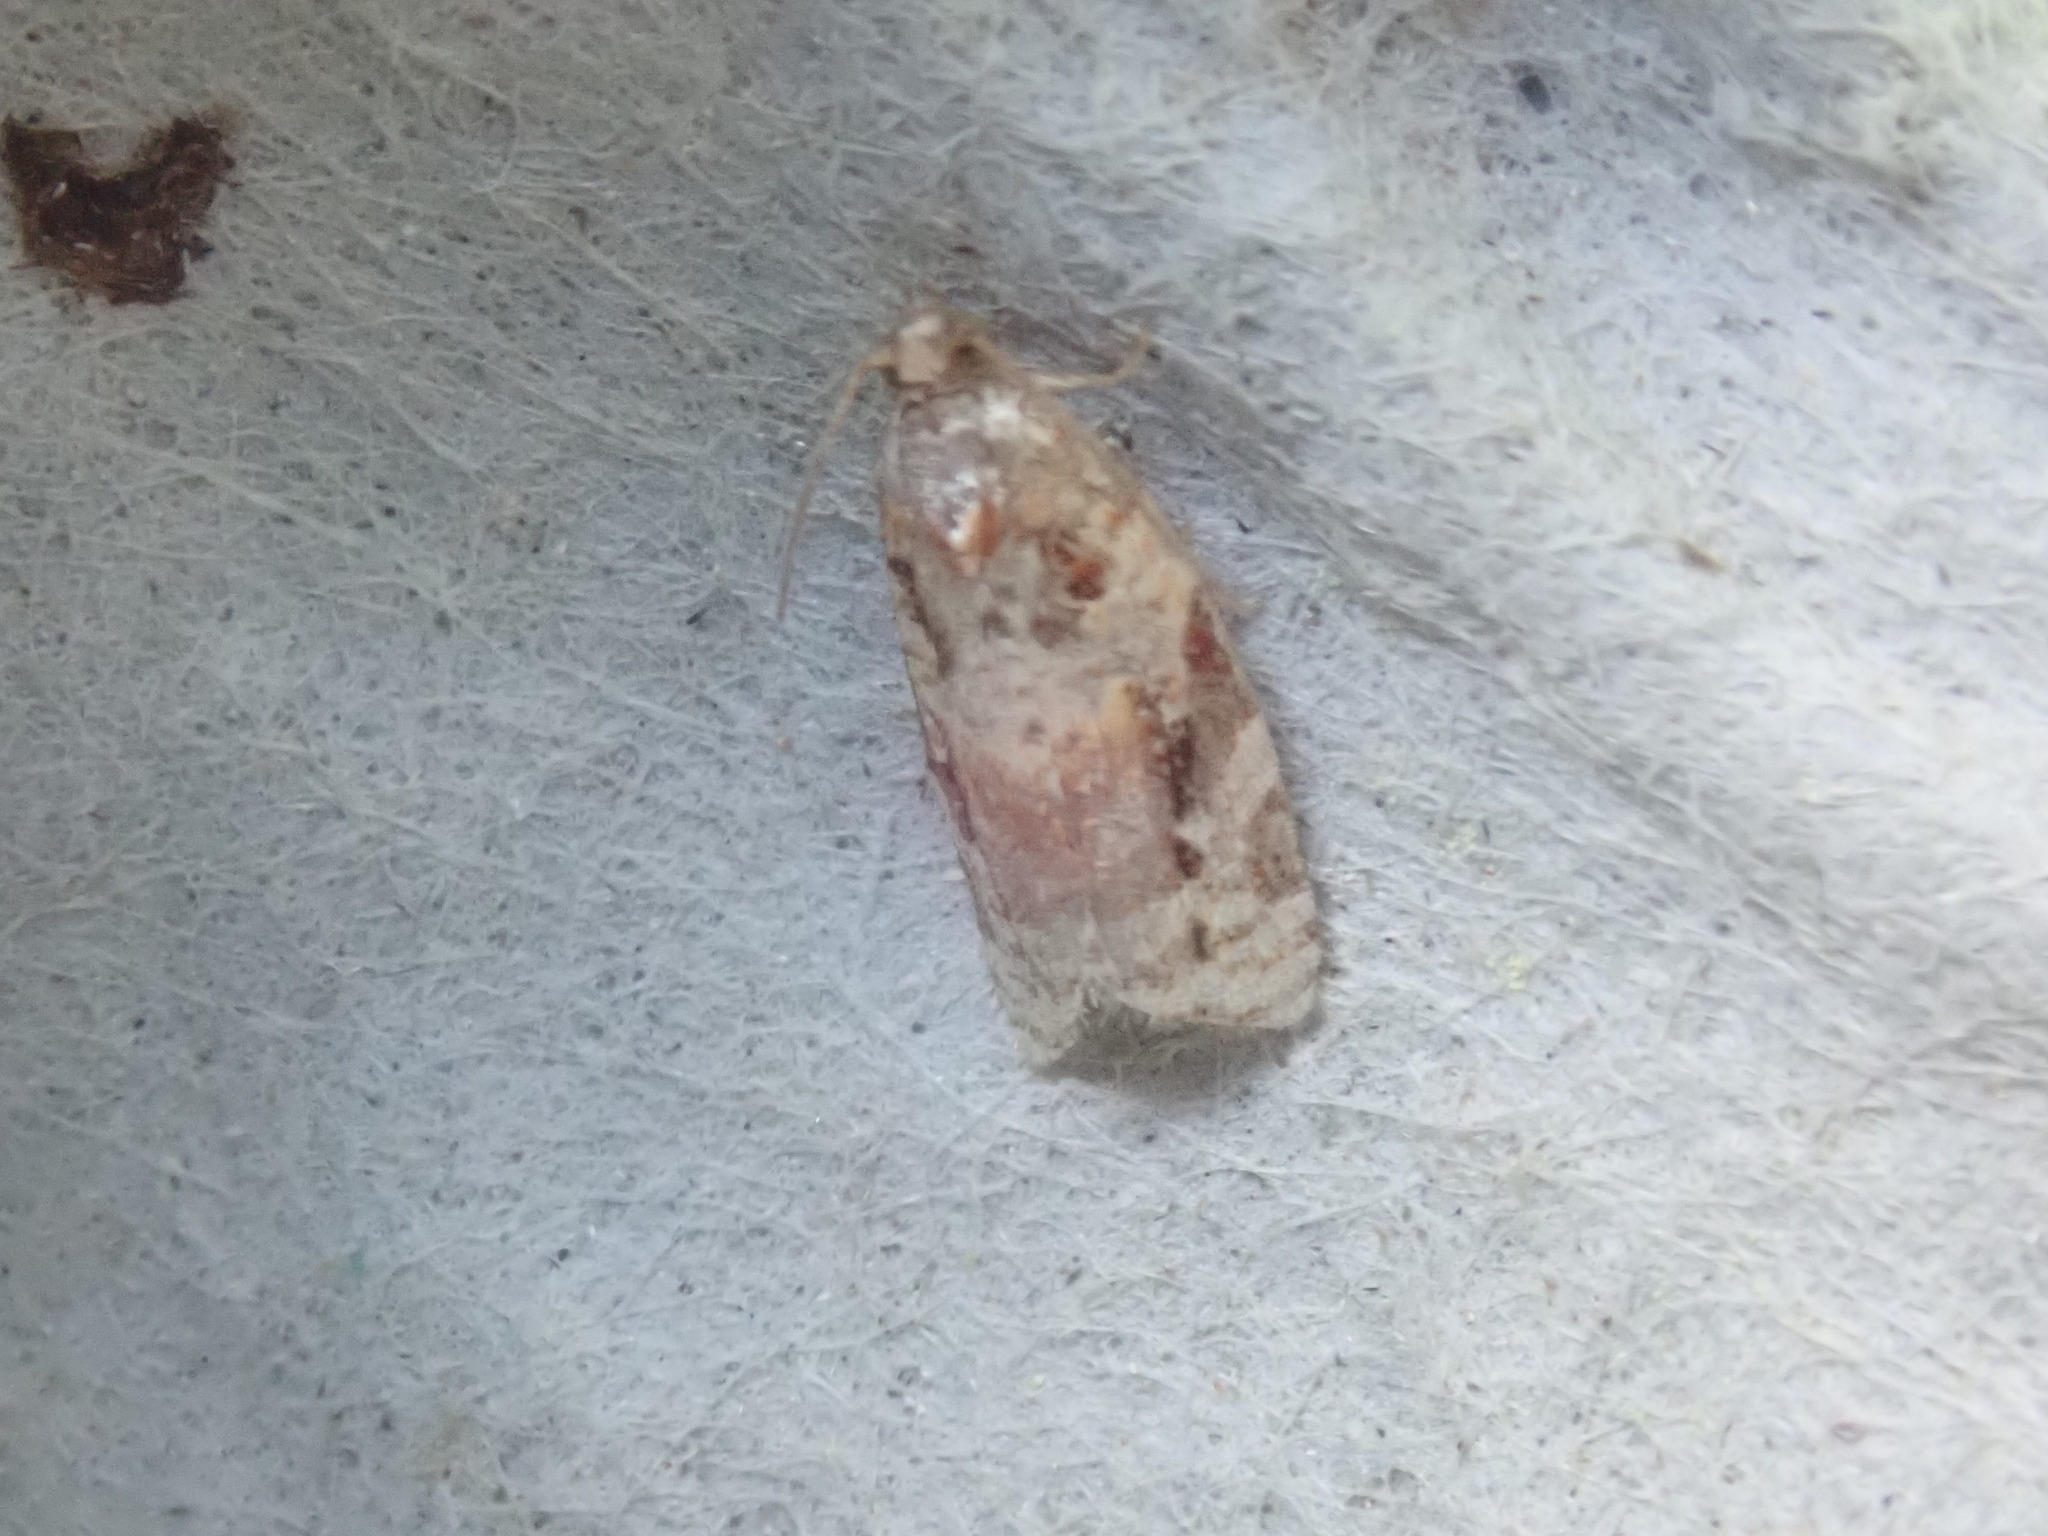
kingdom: Animalia
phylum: Arthropoda
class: Insecta
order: Lepidoptera
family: Tortricidae
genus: Argyrotaenia
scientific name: Argyrotaenia velutinana
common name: Red-banded leafroller moth
